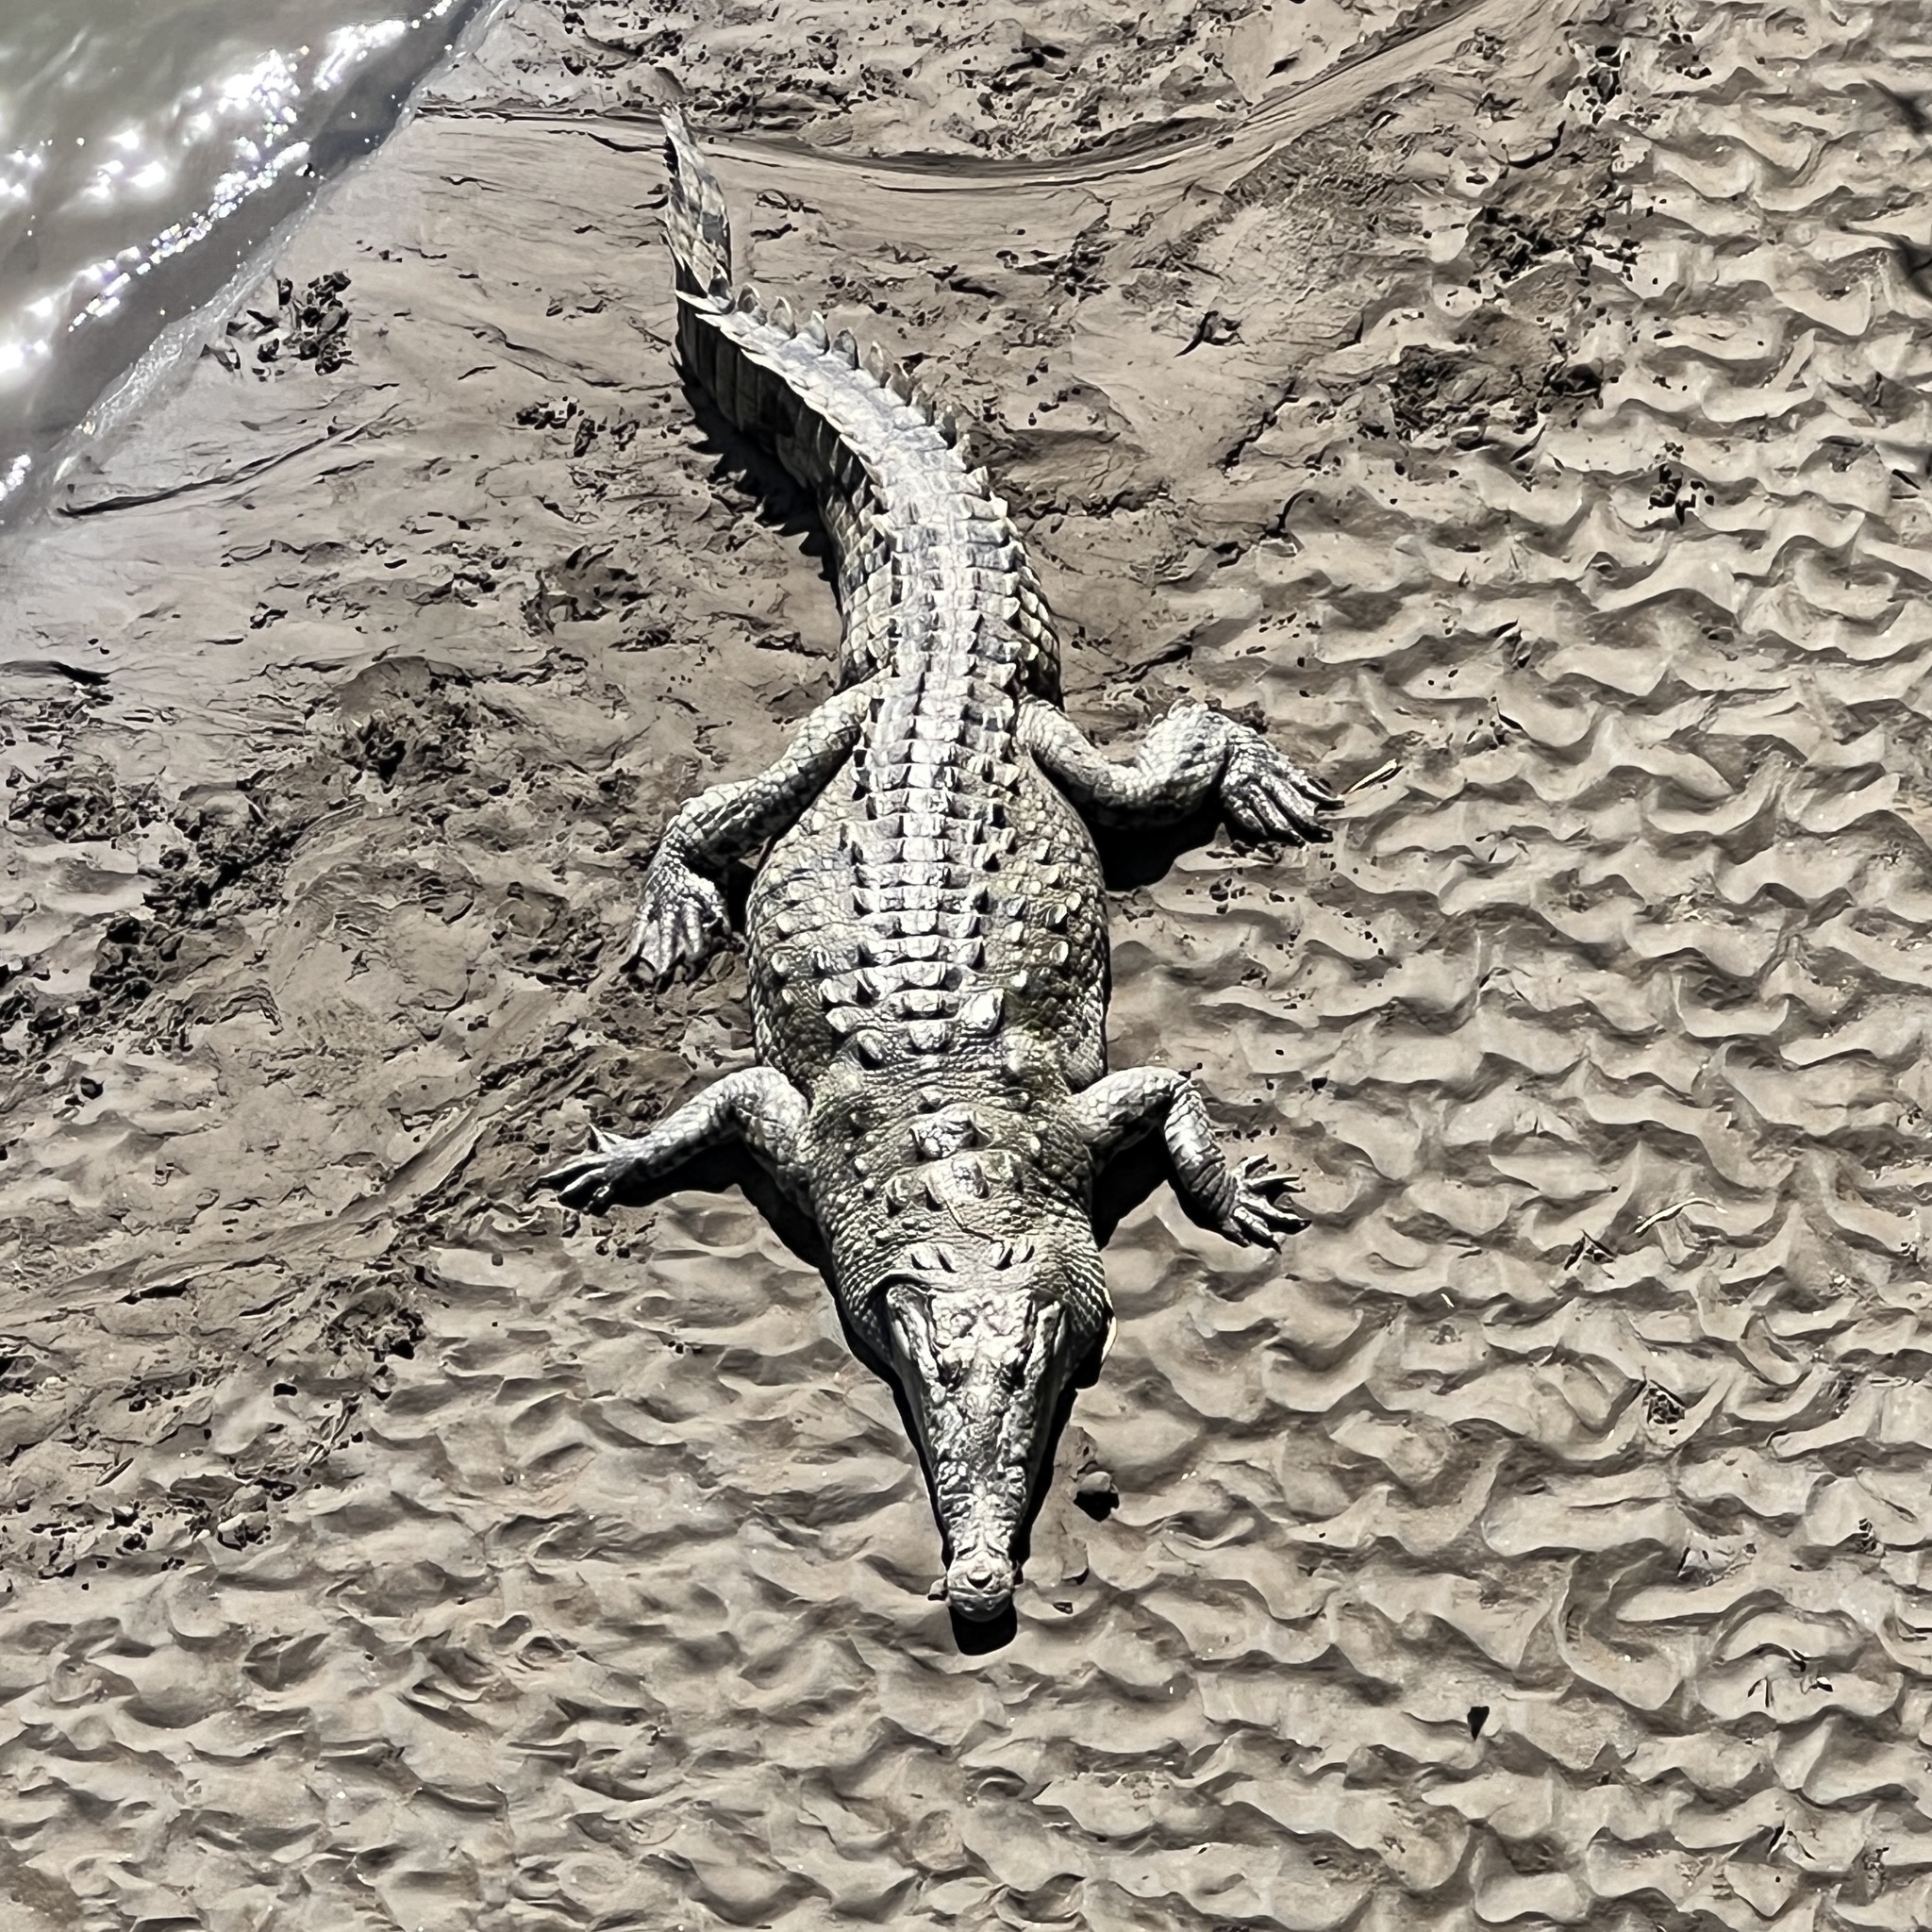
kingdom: Animalia
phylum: Chordata
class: Crocodylia
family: Crocodylidae
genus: Crocodylus
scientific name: Crocodylus acutus
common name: American crocodile
